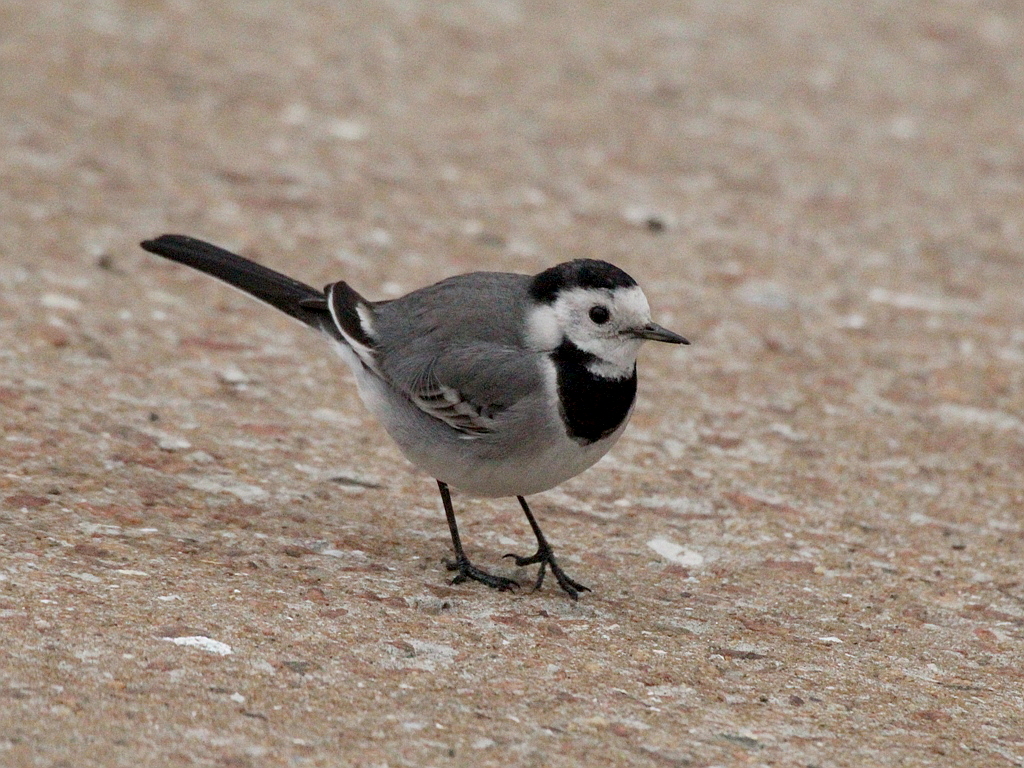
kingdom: Animalia
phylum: Chordata
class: Aves
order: Passeriformes
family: Motacillidae
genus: Motacilla
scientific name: Motacilla alba
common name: White wagtail
